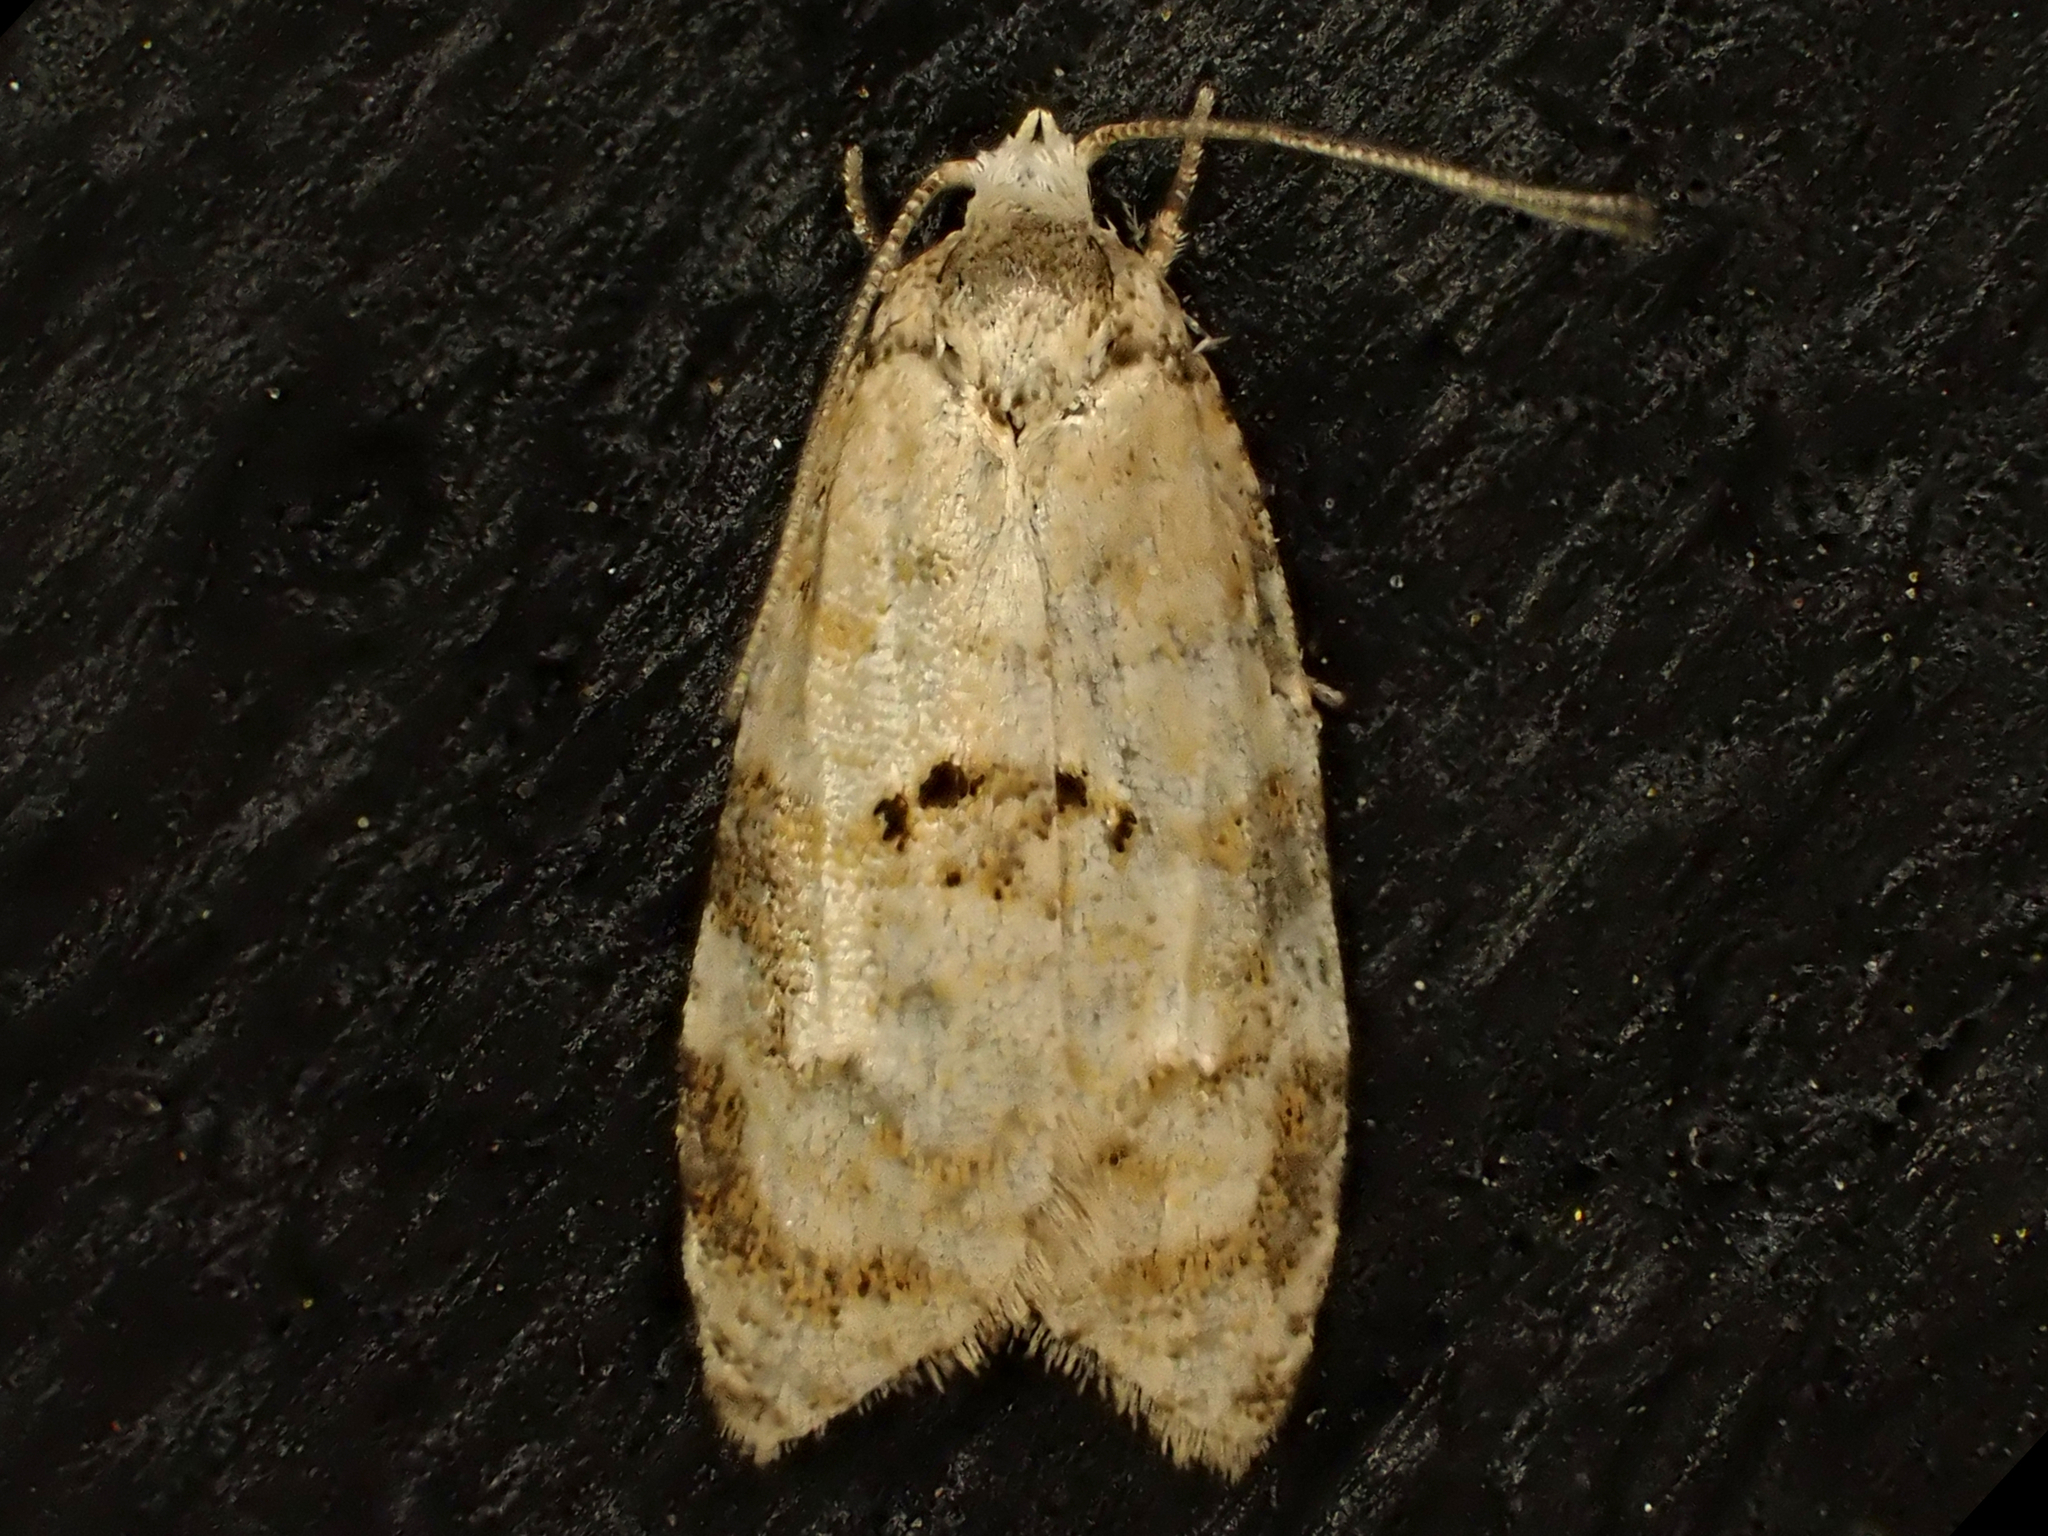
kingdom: Animalia
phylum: Arthropoda
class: Insecta
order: Lepidoptera
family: Tortricidae
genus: Dipterina
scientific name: Dipterina imbriferana
